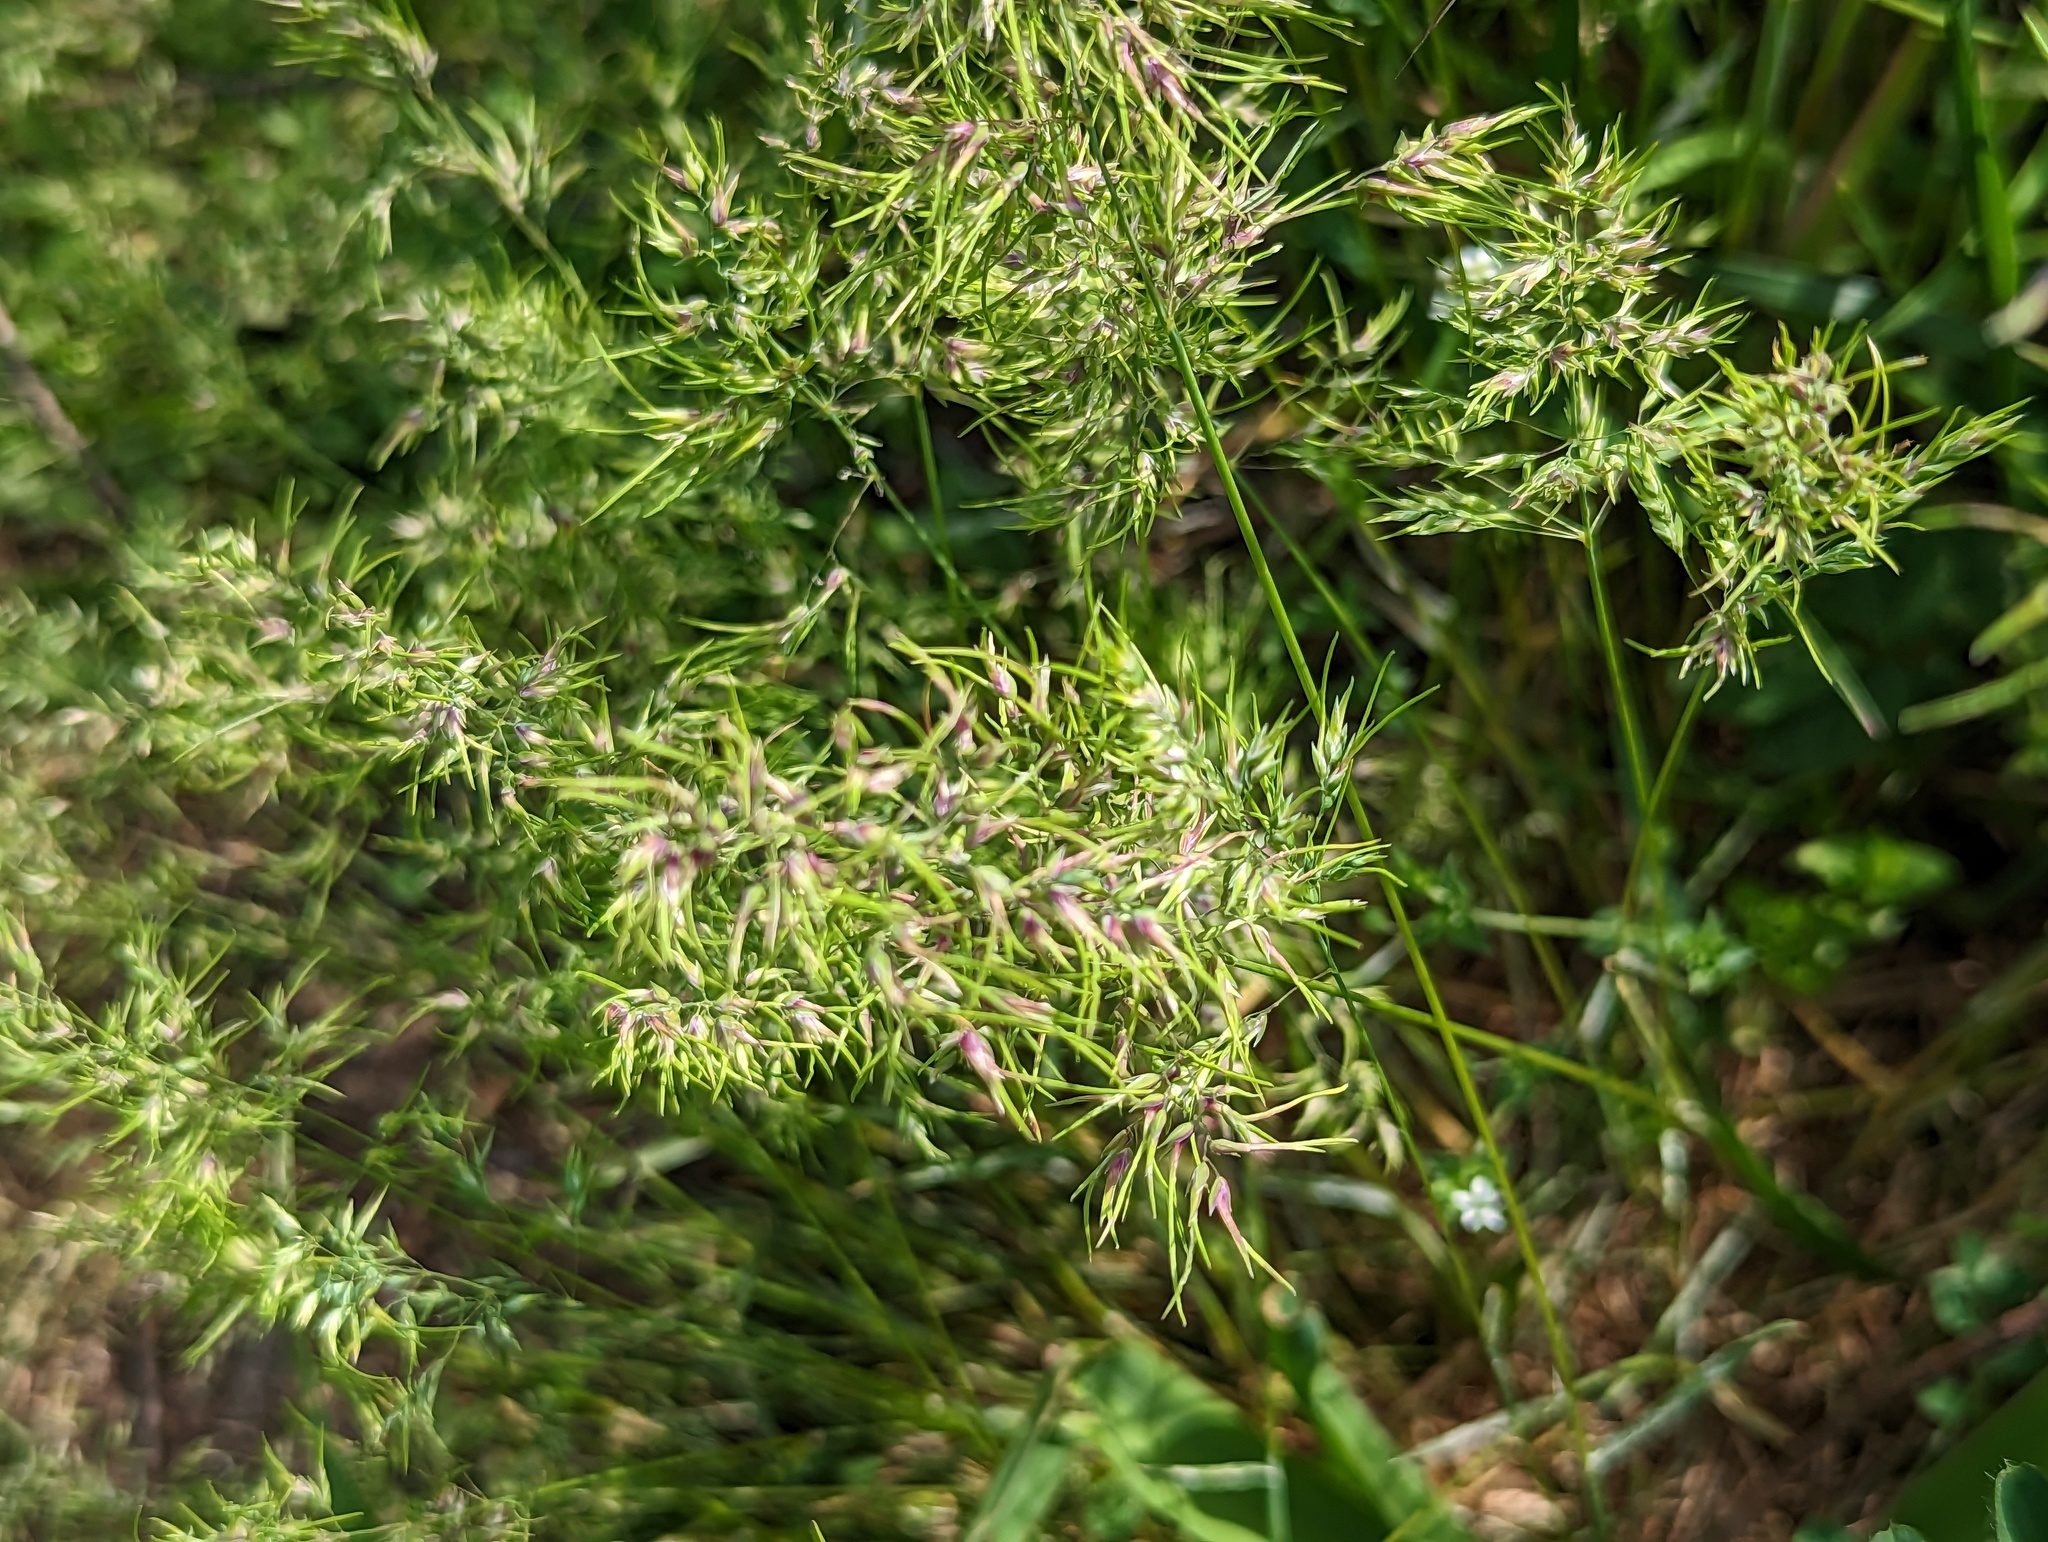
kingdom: Plantae
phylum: Tracheophyta
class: Liliopsida
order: Poales
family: Poaceae
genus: Poa
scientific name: Poa bulbosa
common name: Bulbous bluegrass
